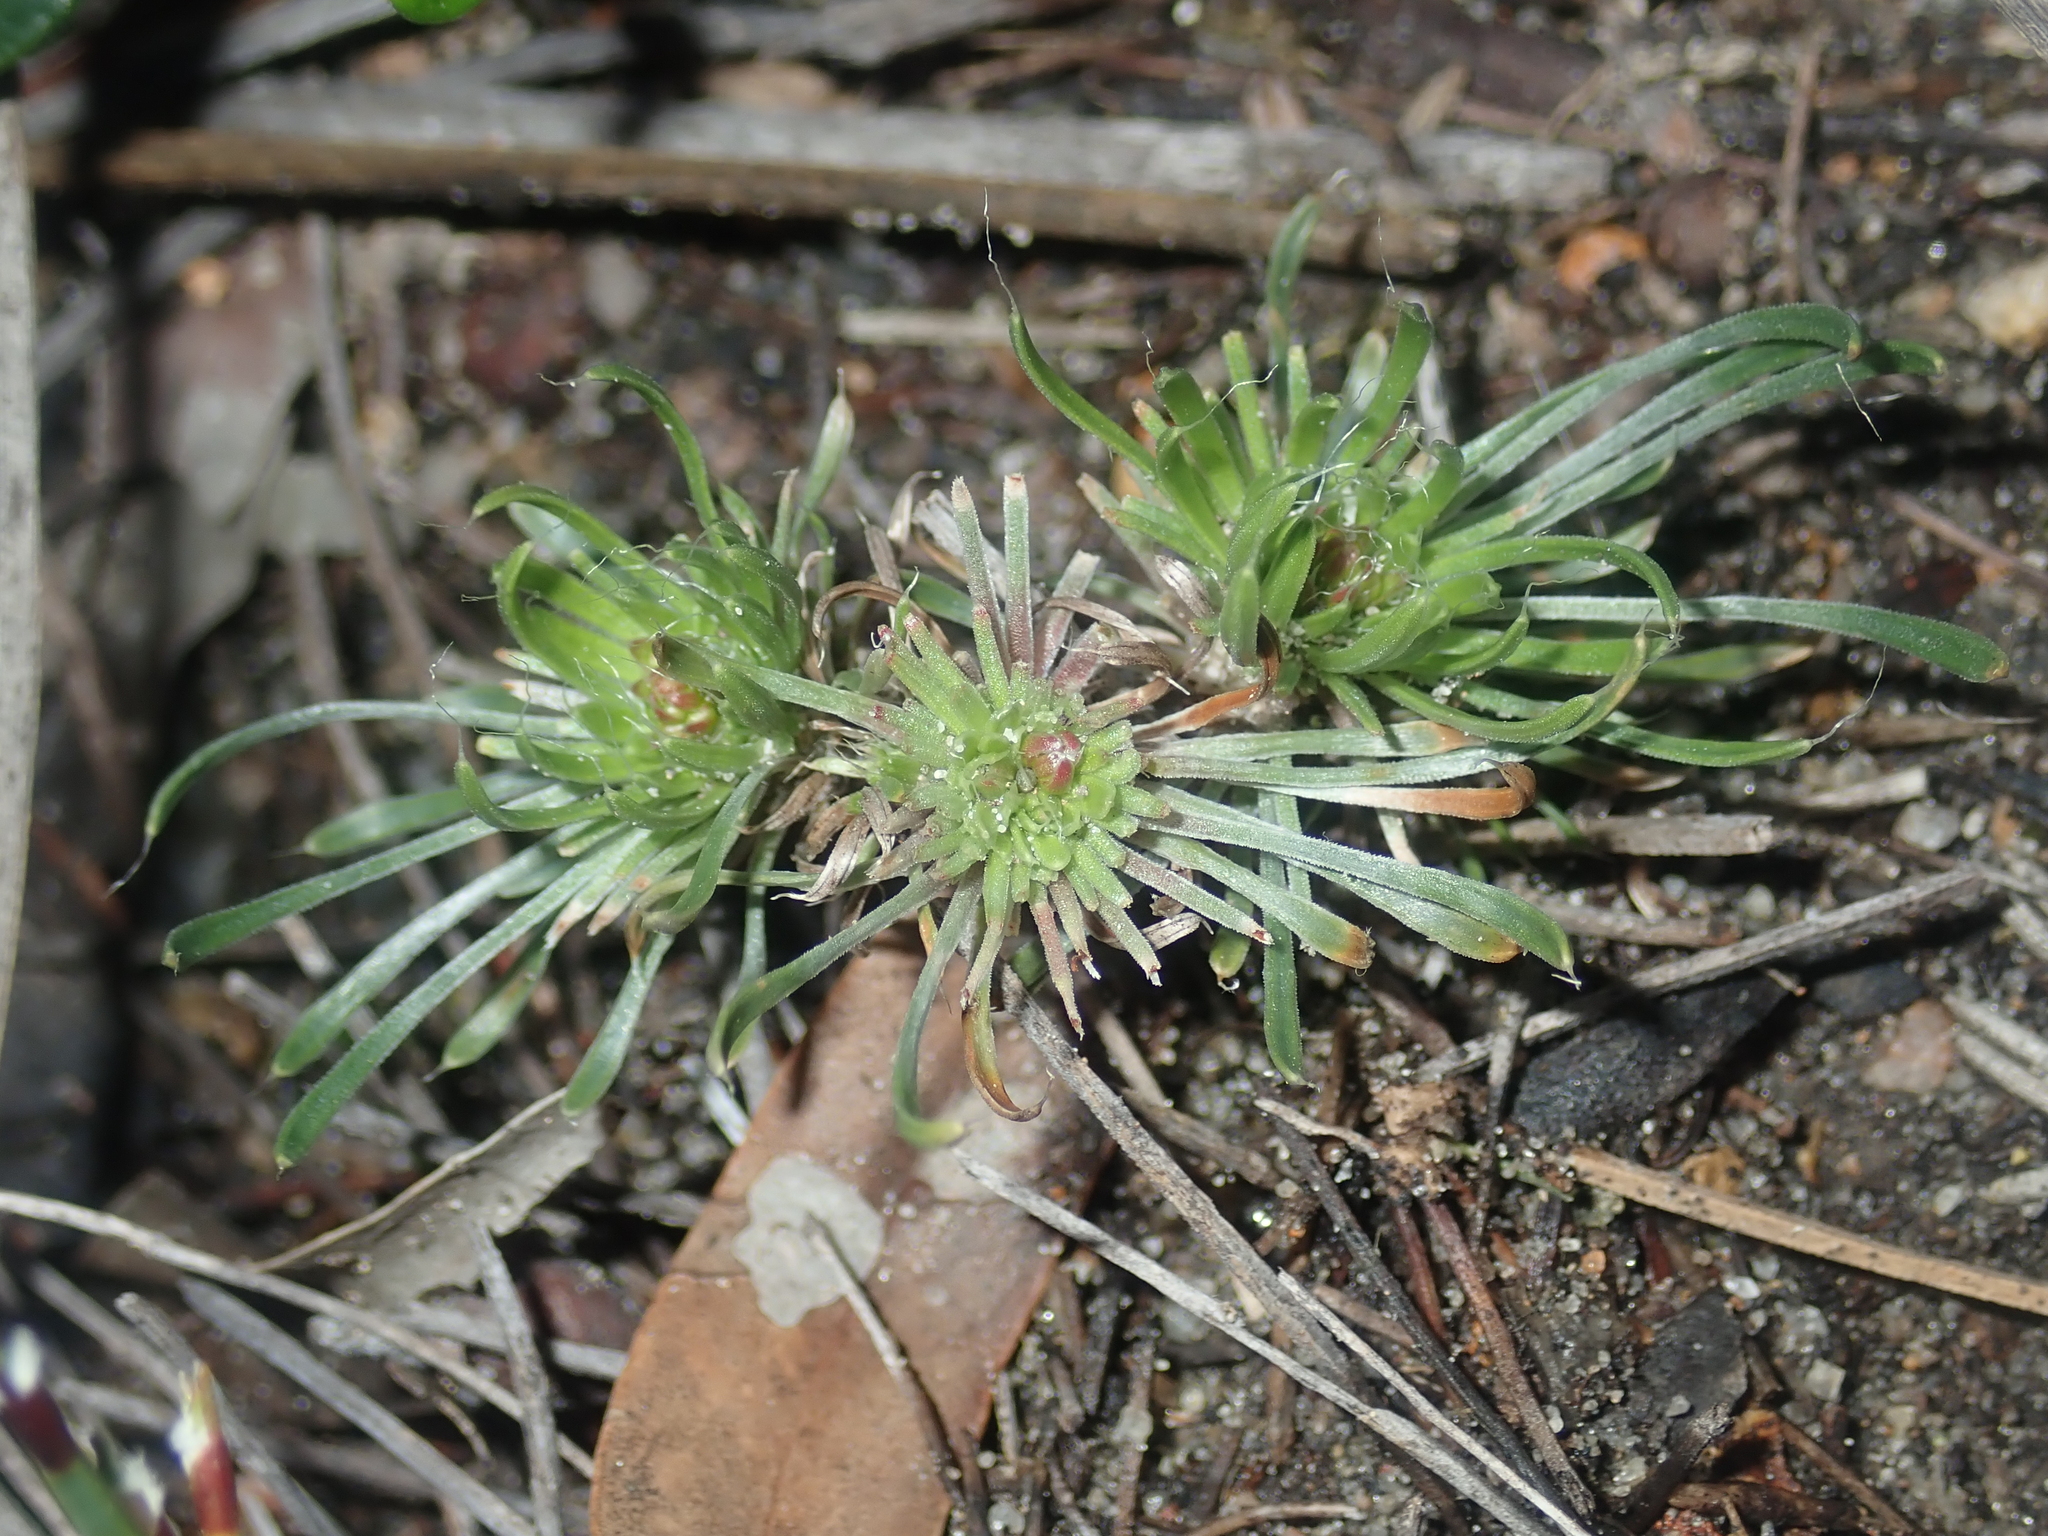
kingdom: Plantae
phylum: Tracheophyta
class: Magnoliopsida
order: Asterales
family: Stylidiaceae
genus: Stylidium
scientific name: Stylidium miniatum
